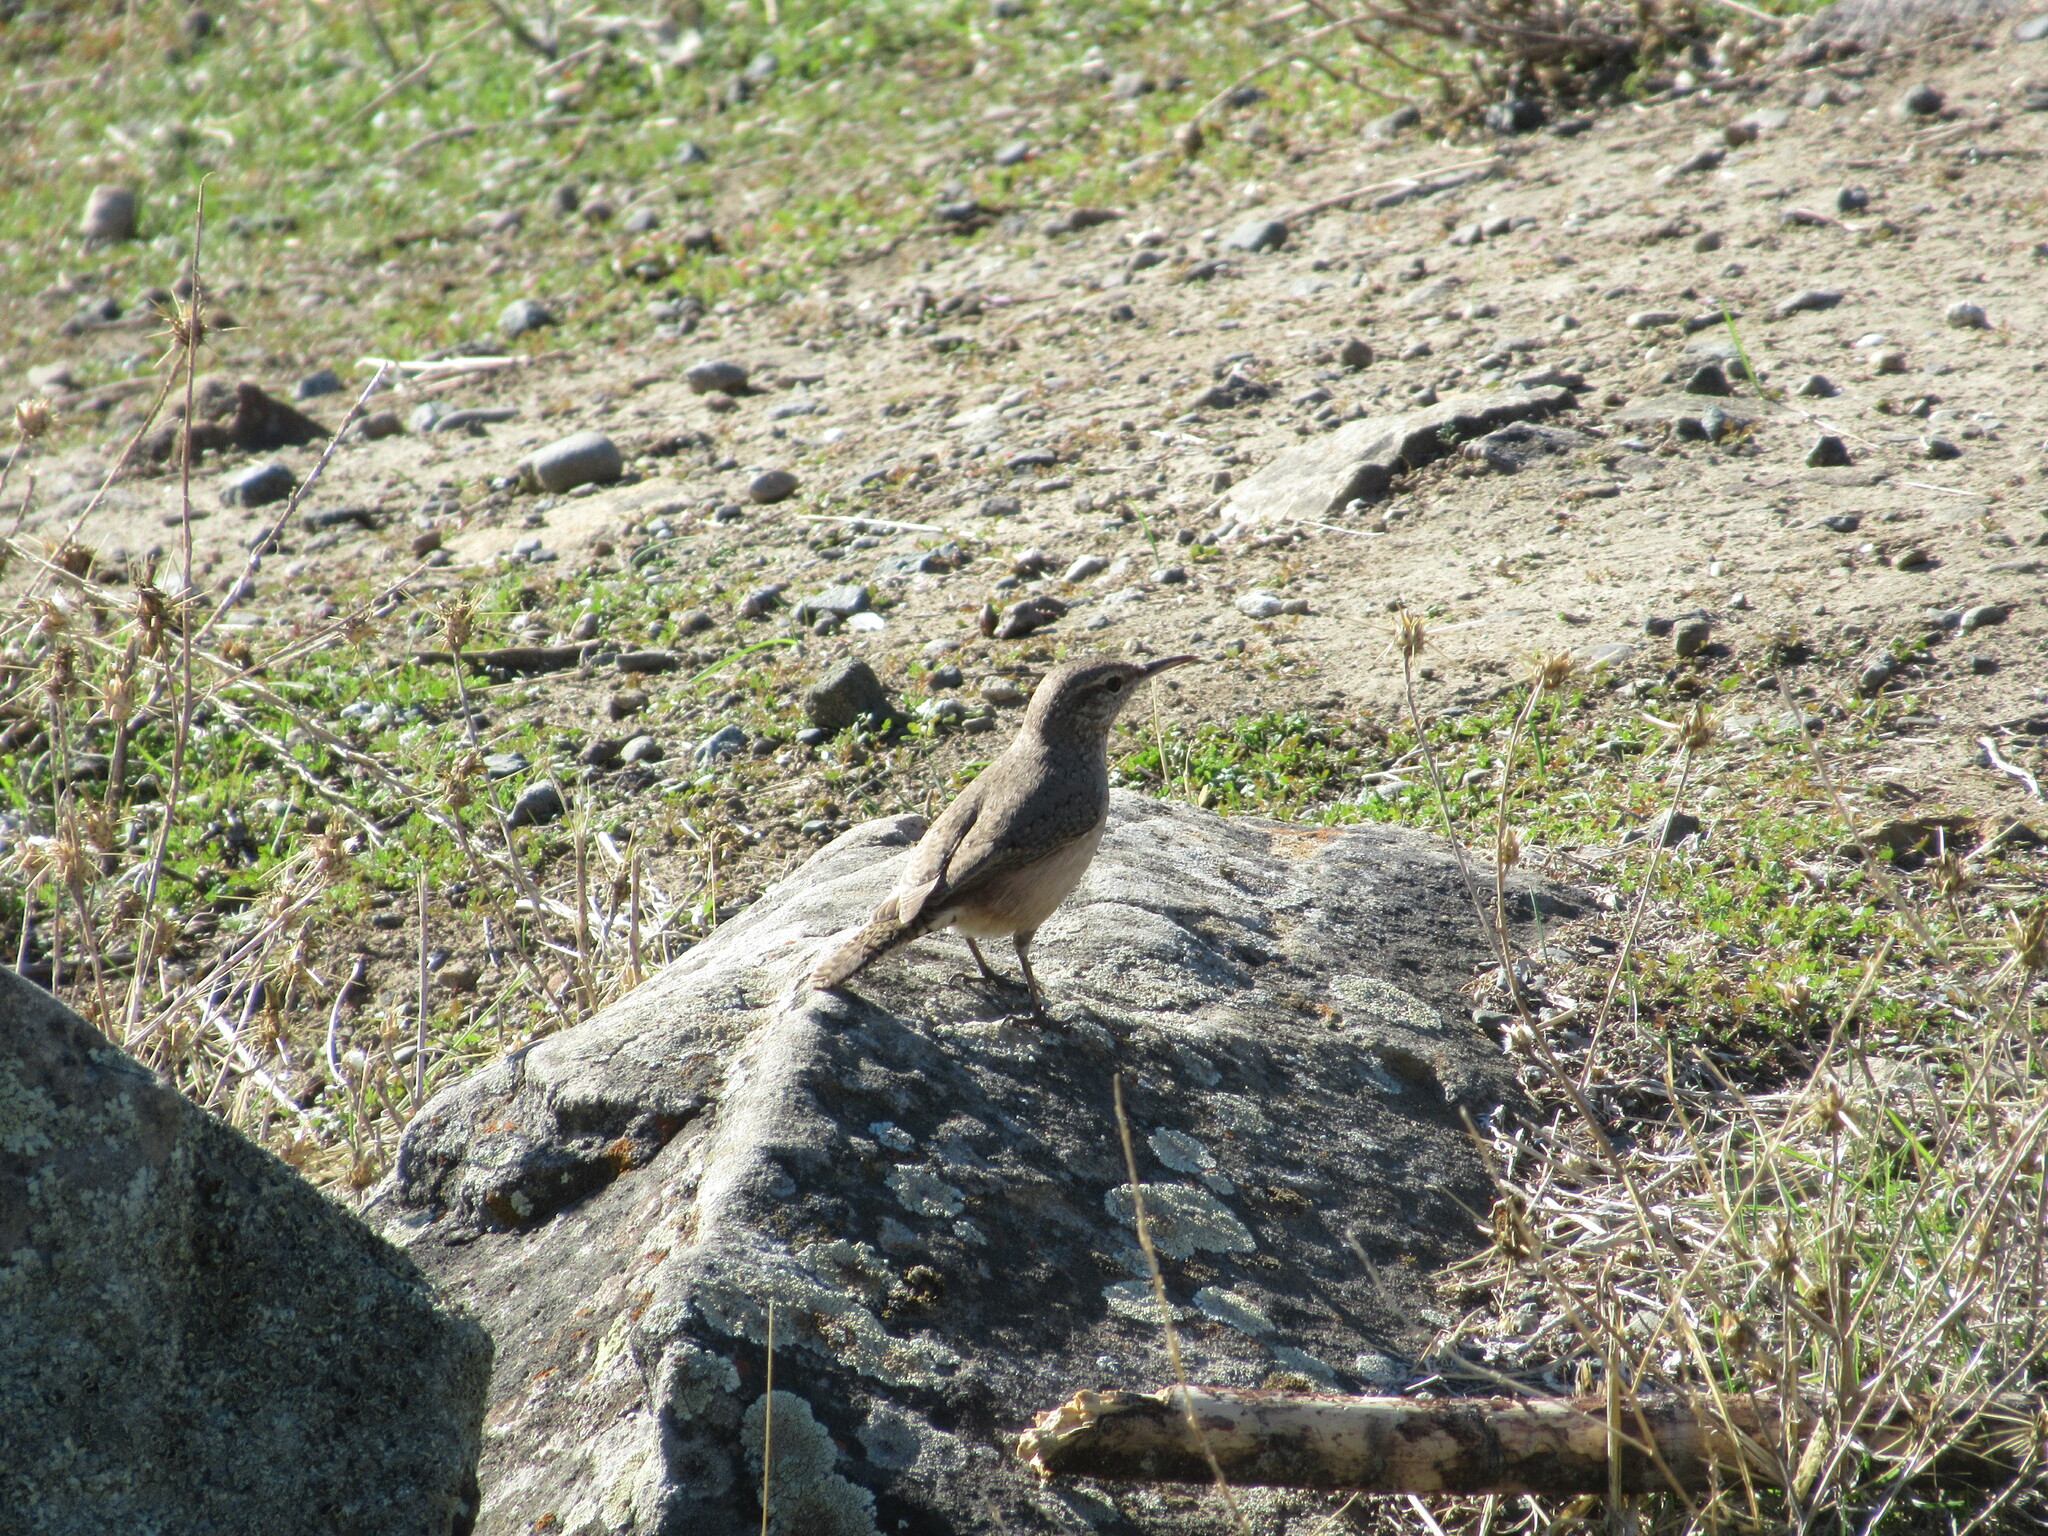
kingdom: Animalia
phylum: Chordata
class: Aves
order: Passeriformes
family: Troglodytidae
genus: Salpinctes
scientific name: Salpinctes obsoletus
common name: Rock wren
